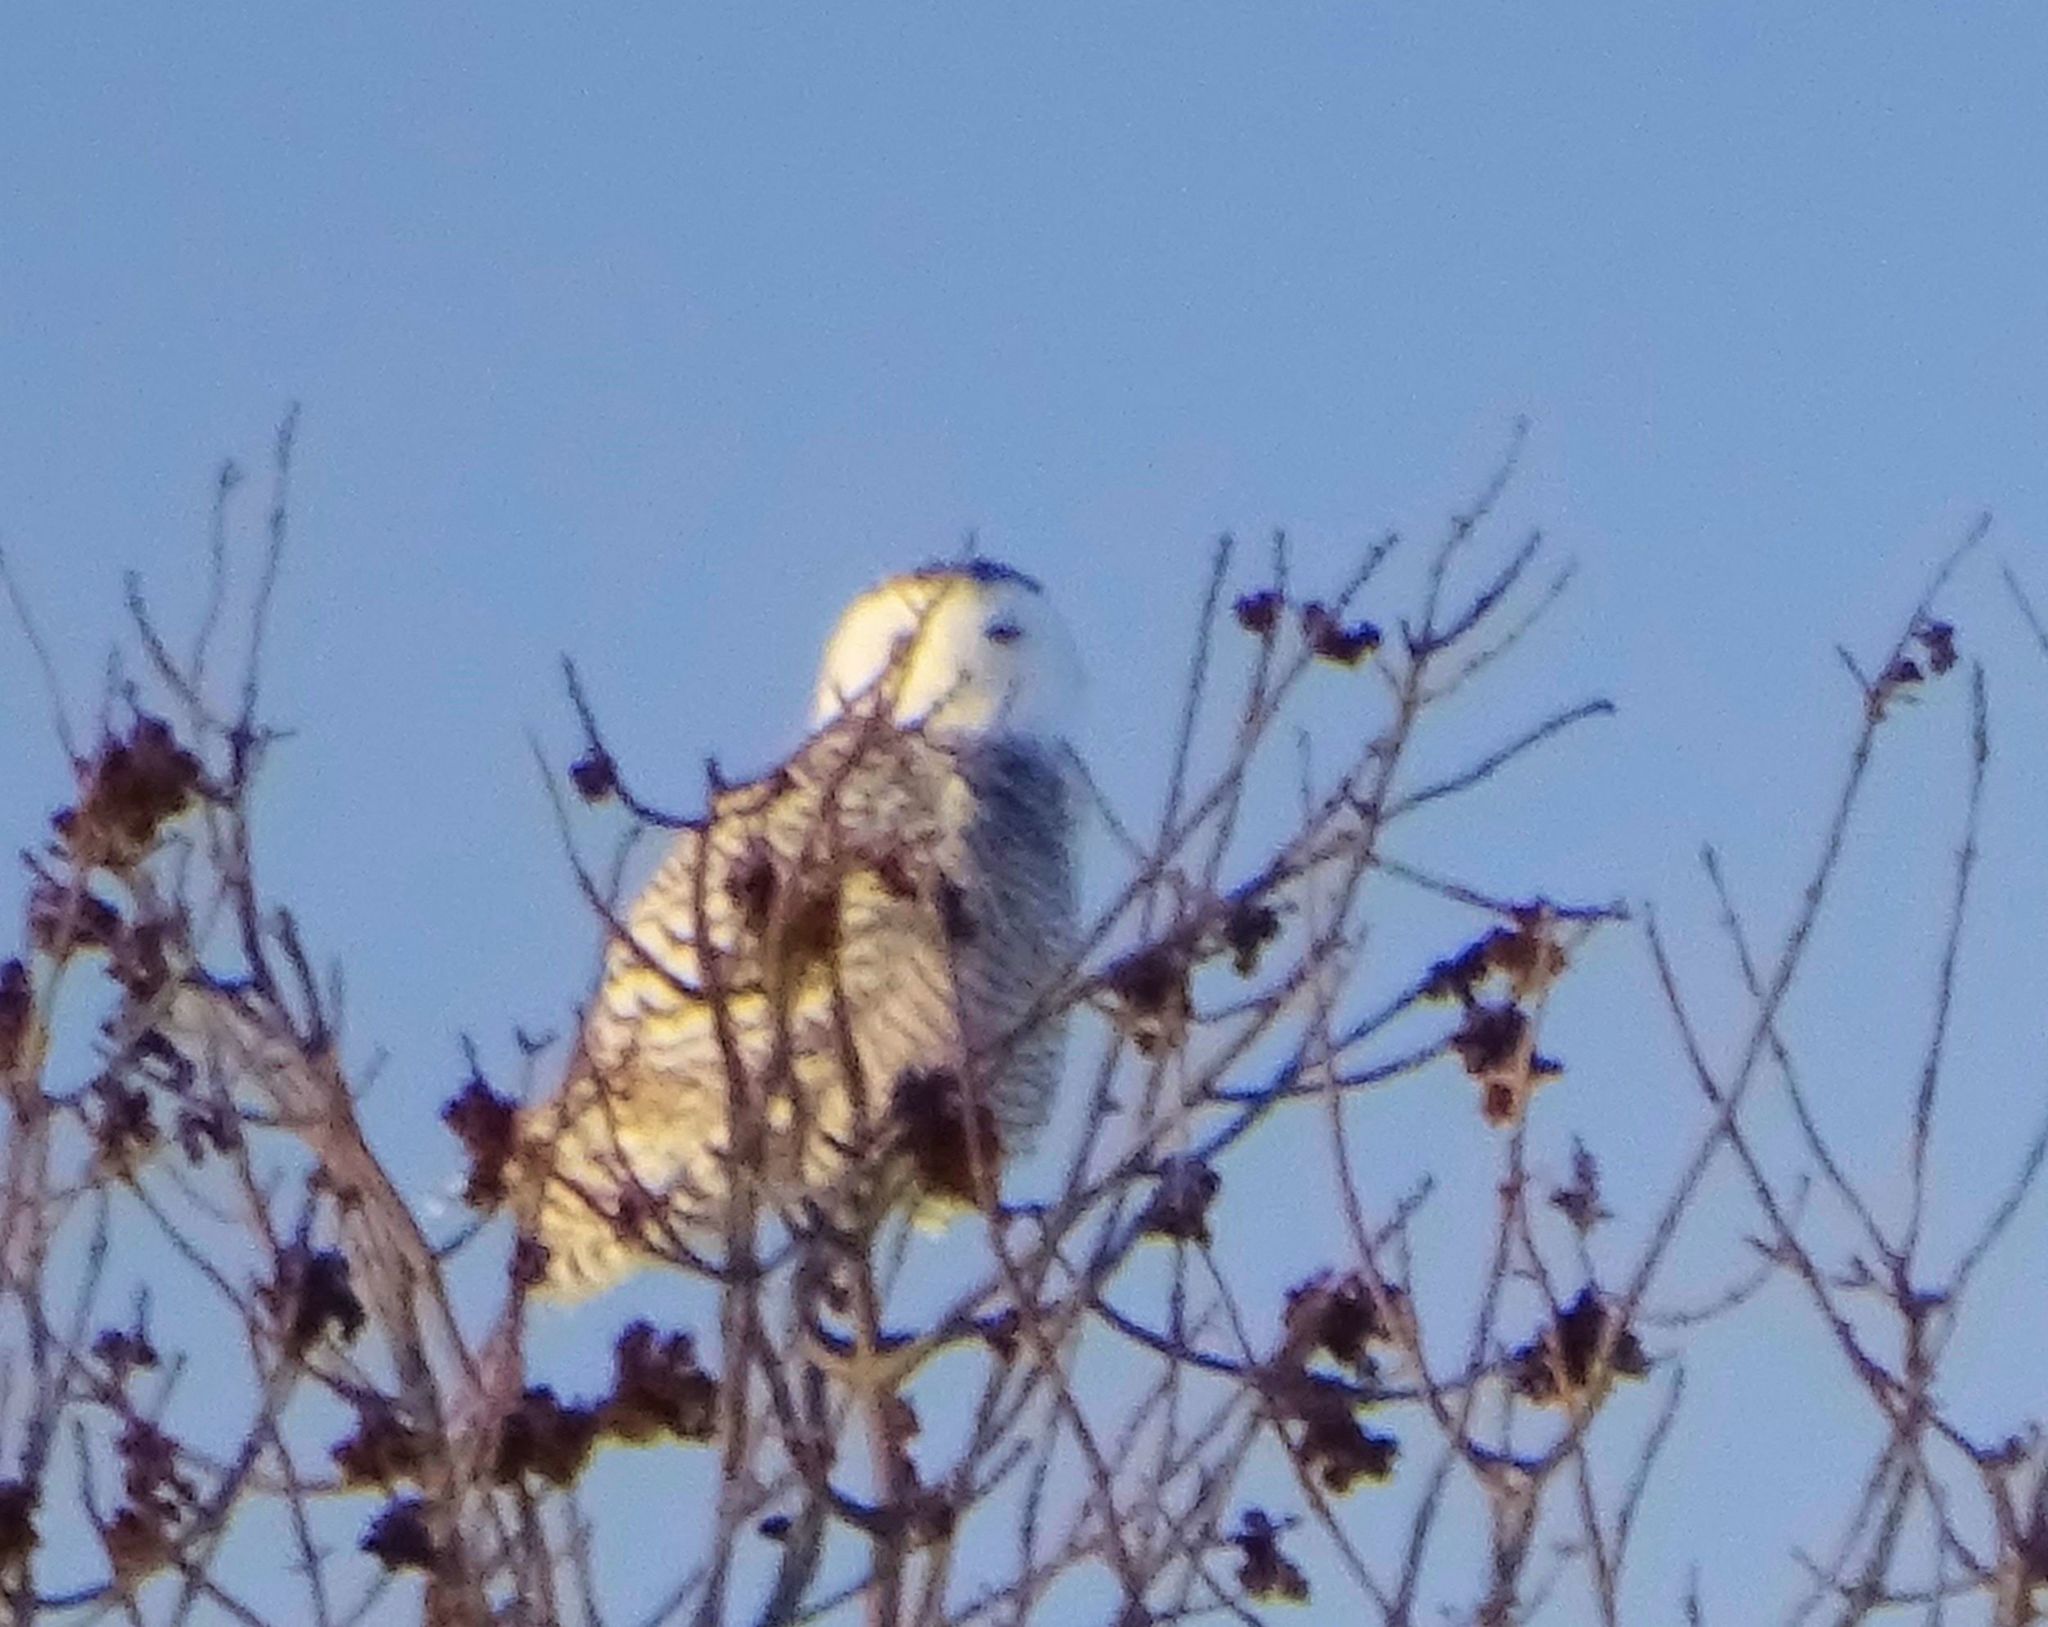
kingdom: Animalia
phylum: Chordata
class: Aves
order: Strigiformes
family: Strigidae
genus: Bubo
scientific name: Bubo scandiacus
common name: Snowy owl
